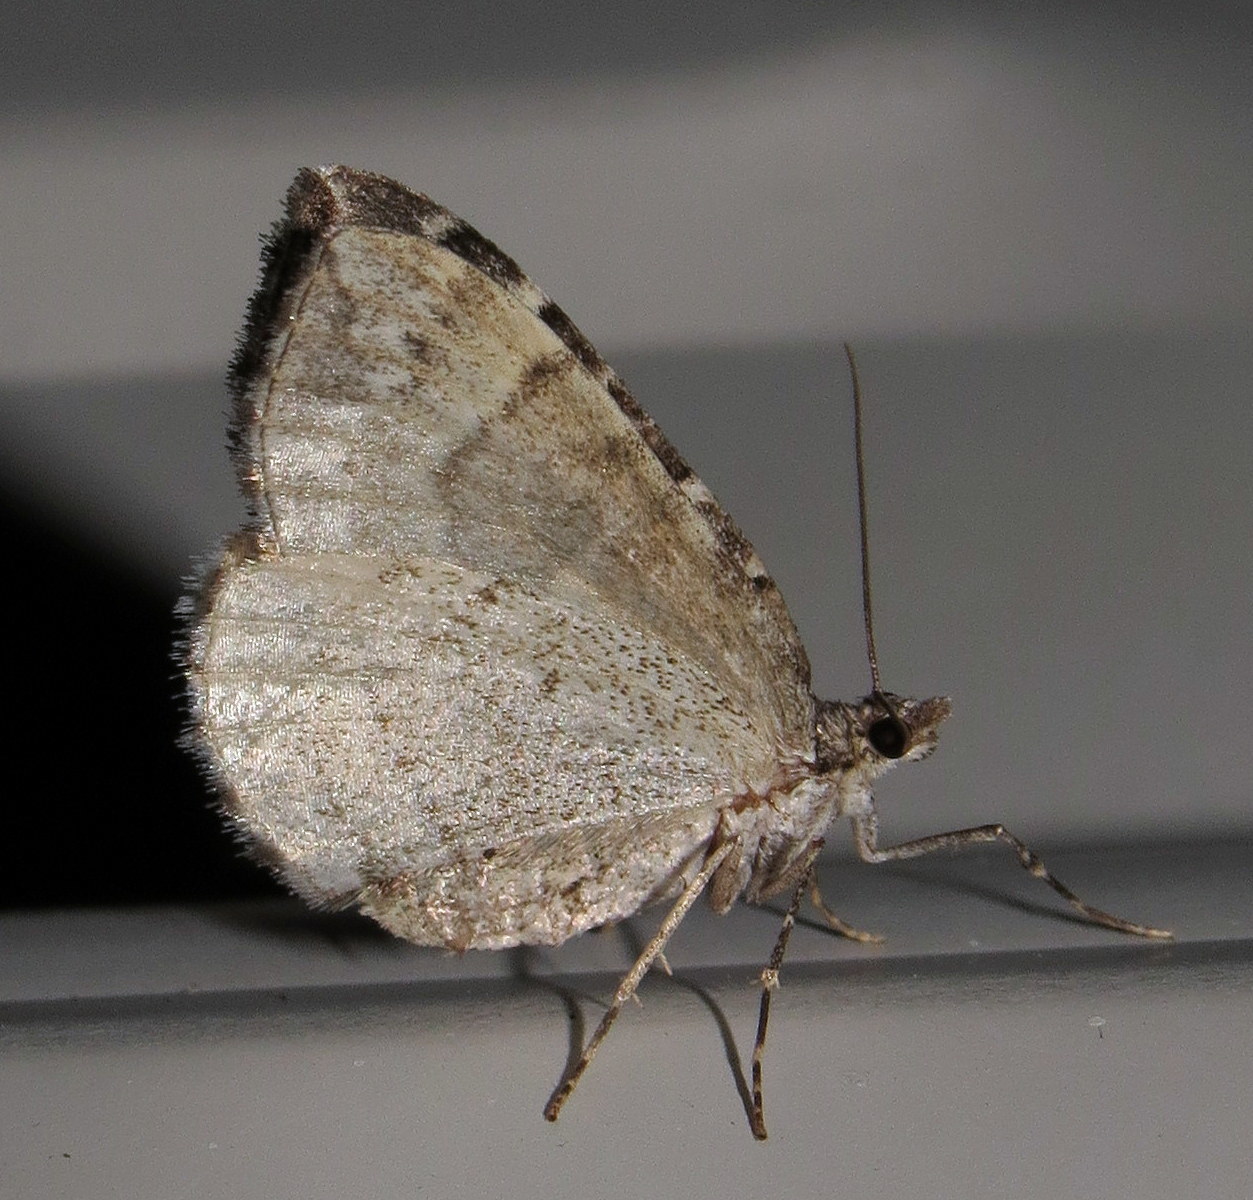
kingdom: Animalia
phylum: Arthropoda
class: Insecta
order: Lepidoptera
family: Geometridae
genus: Eulithis
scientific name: Eulithis explanata
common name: White eulithis
